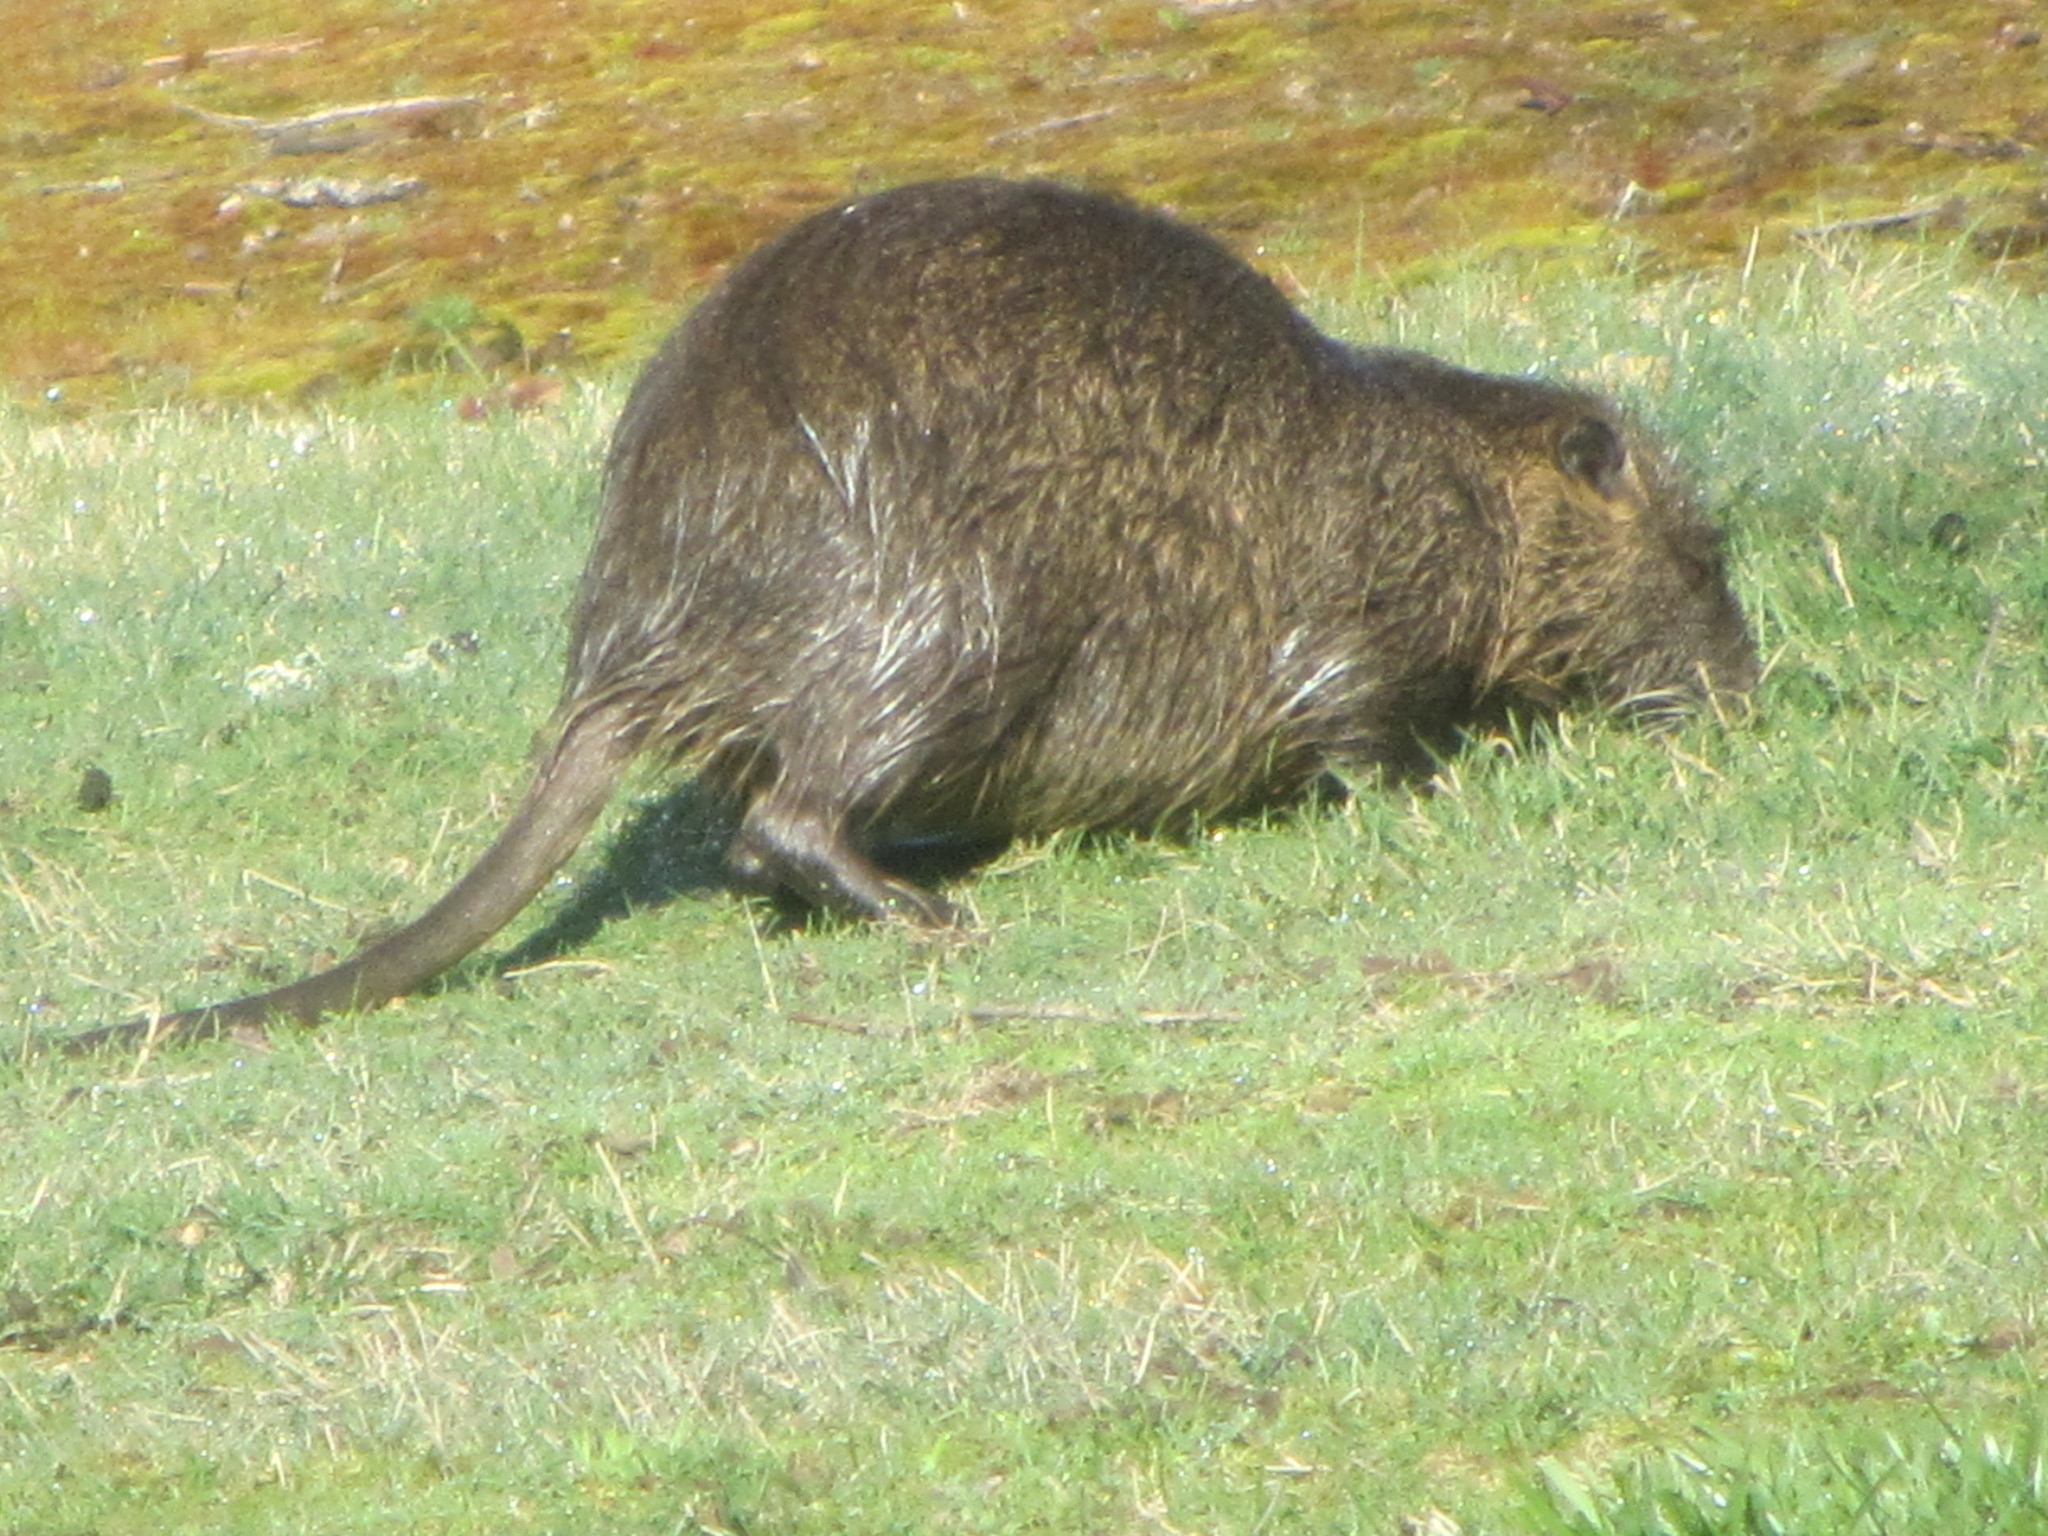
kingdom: Animalia
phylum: Chordata
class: Mammalia
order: Rodentia
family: Myocastoridae
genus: Myocastor
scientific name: Myocastor coypus
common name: Coypu
